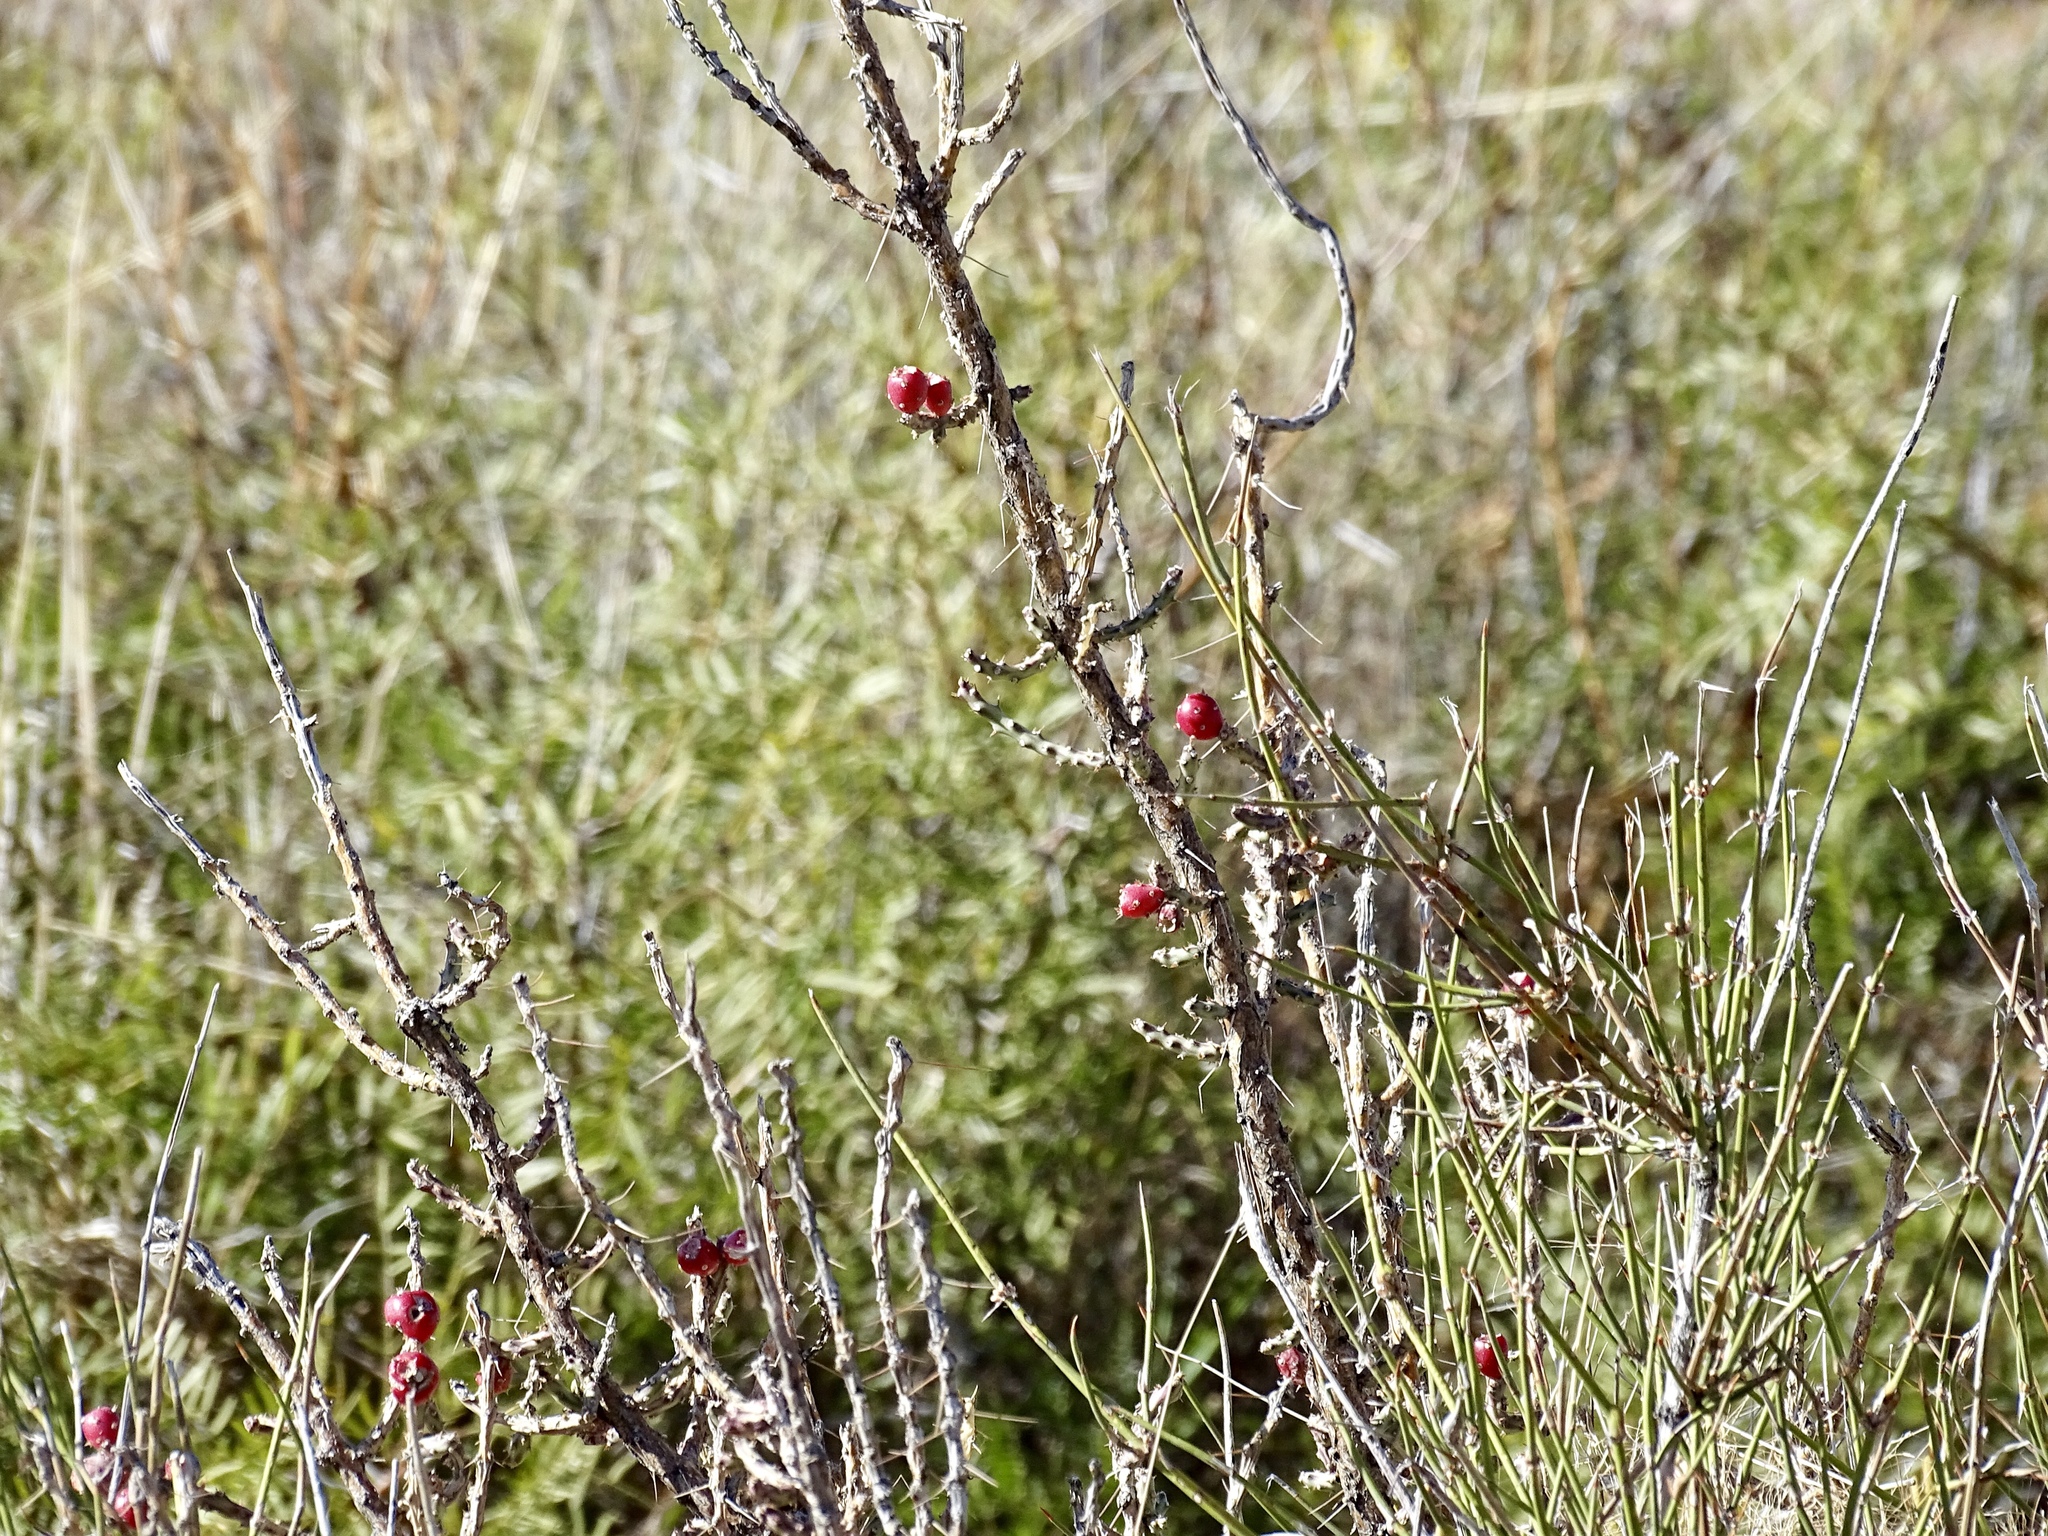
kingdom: Plantae
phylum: Tracheophyta
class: Magnoliopsida
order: Caryophyllales
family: Cactaceae
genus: Cylindropuntia
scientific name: Cylindropuntia leptocaulis
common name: Christmas cactus
